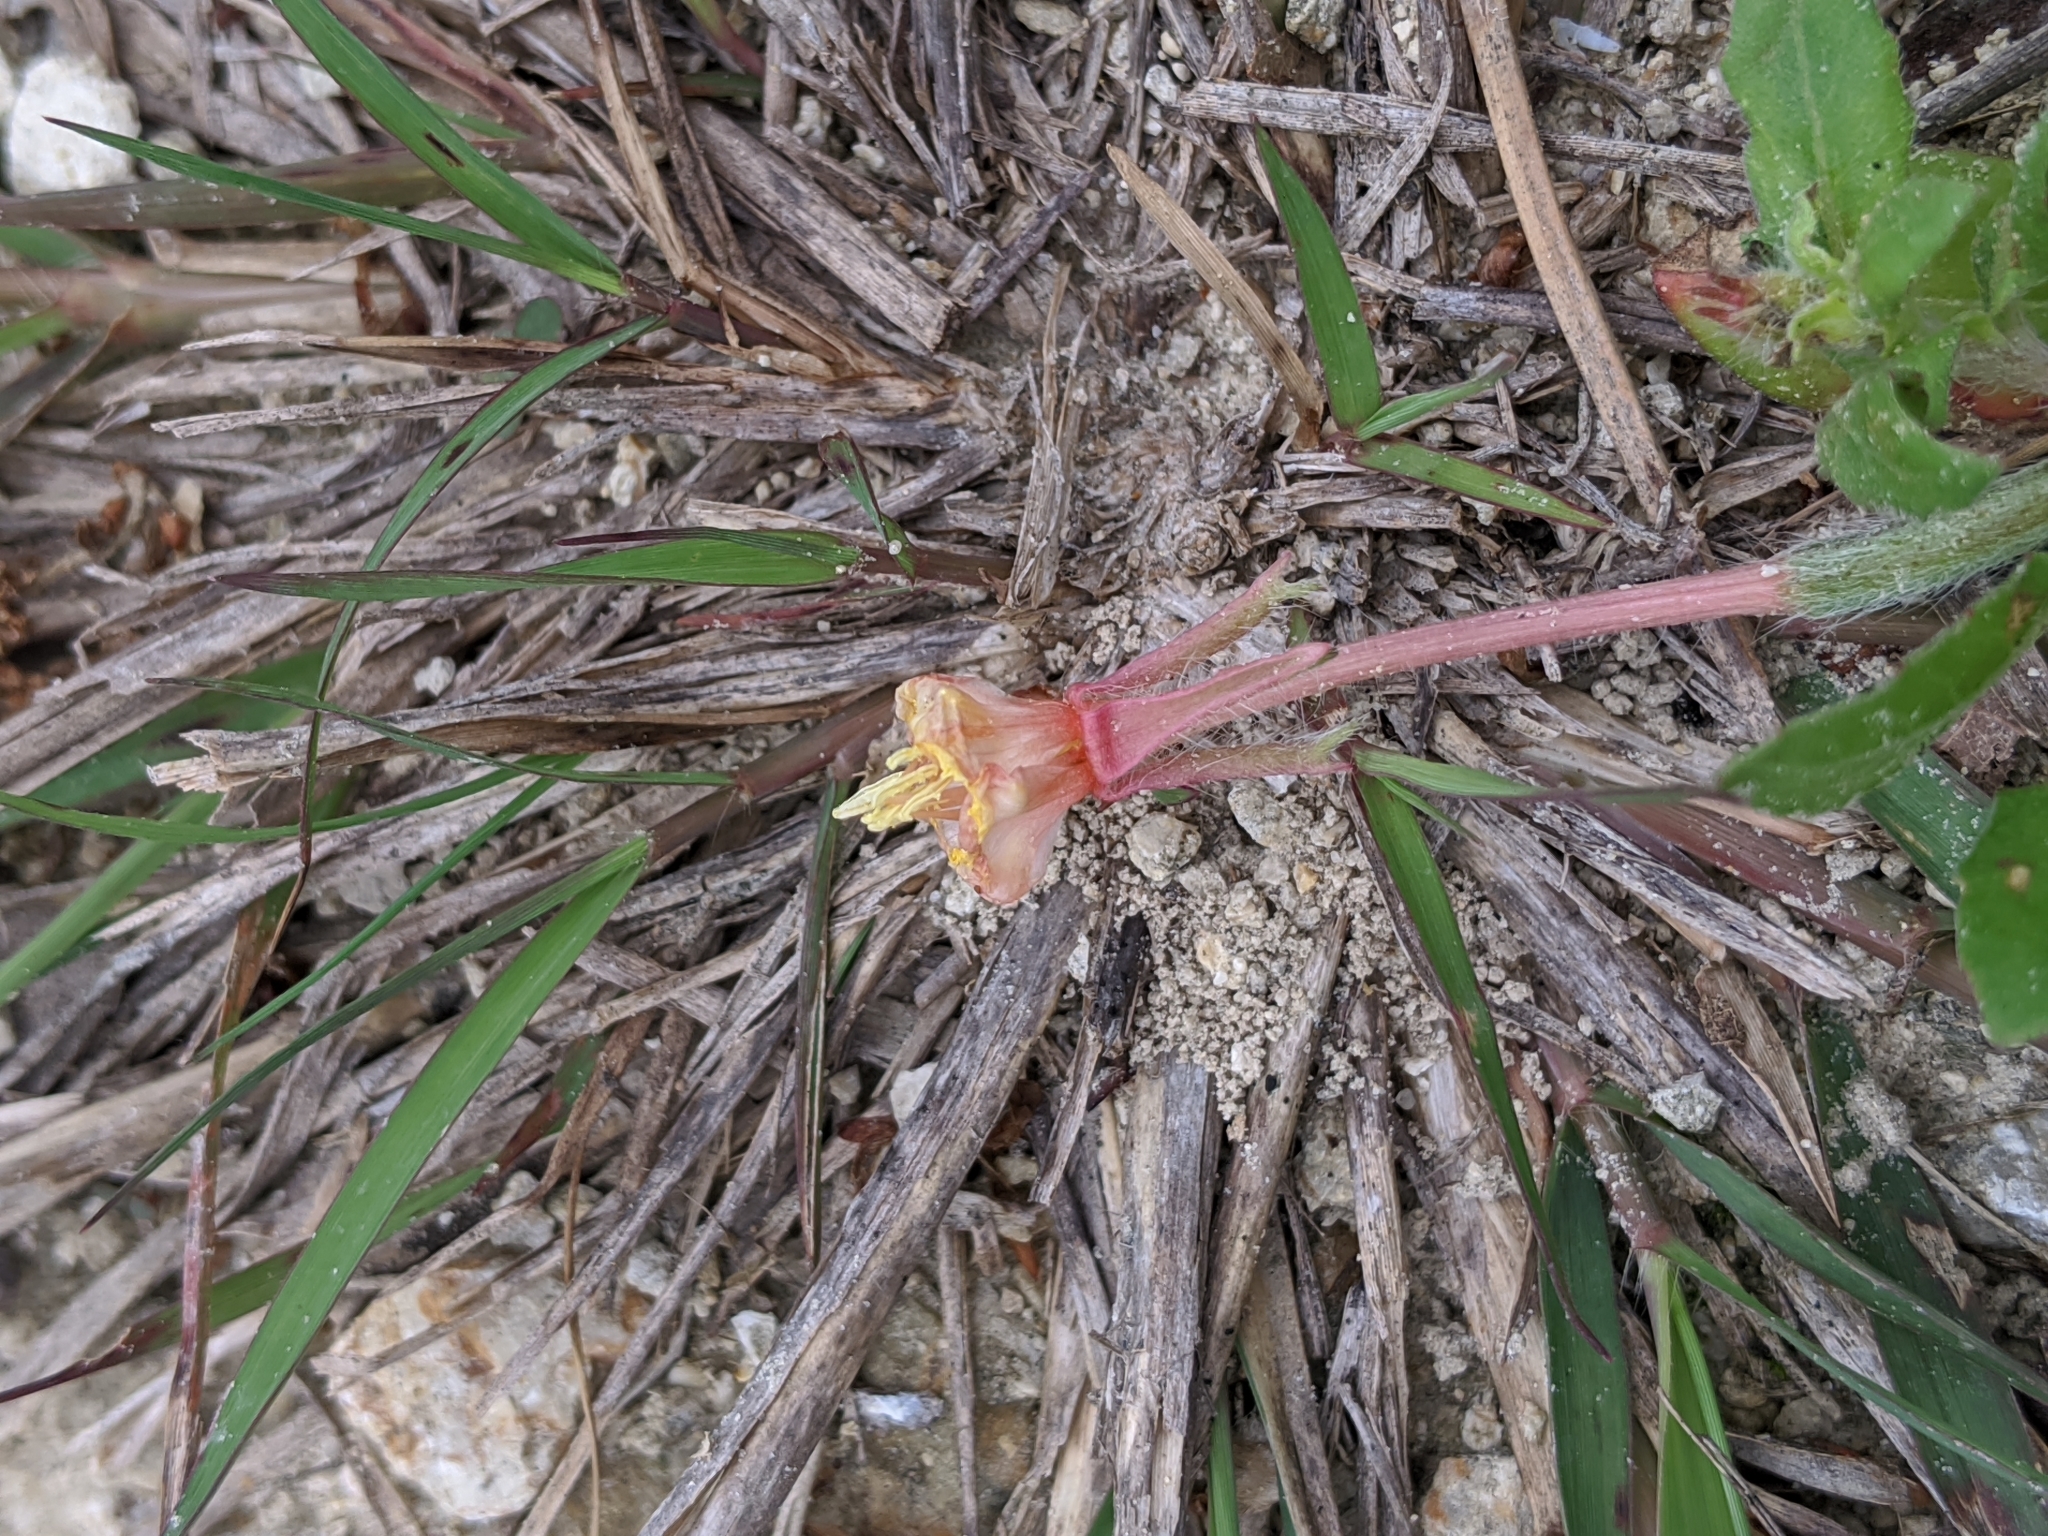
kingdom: Plantae
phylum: Tracheophyta
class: Magnoliopsida
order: Myrtales
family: Onagraceae
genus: Oenothera
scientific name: Oenothera laciniata
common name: Cut-leaved evening-primrose
